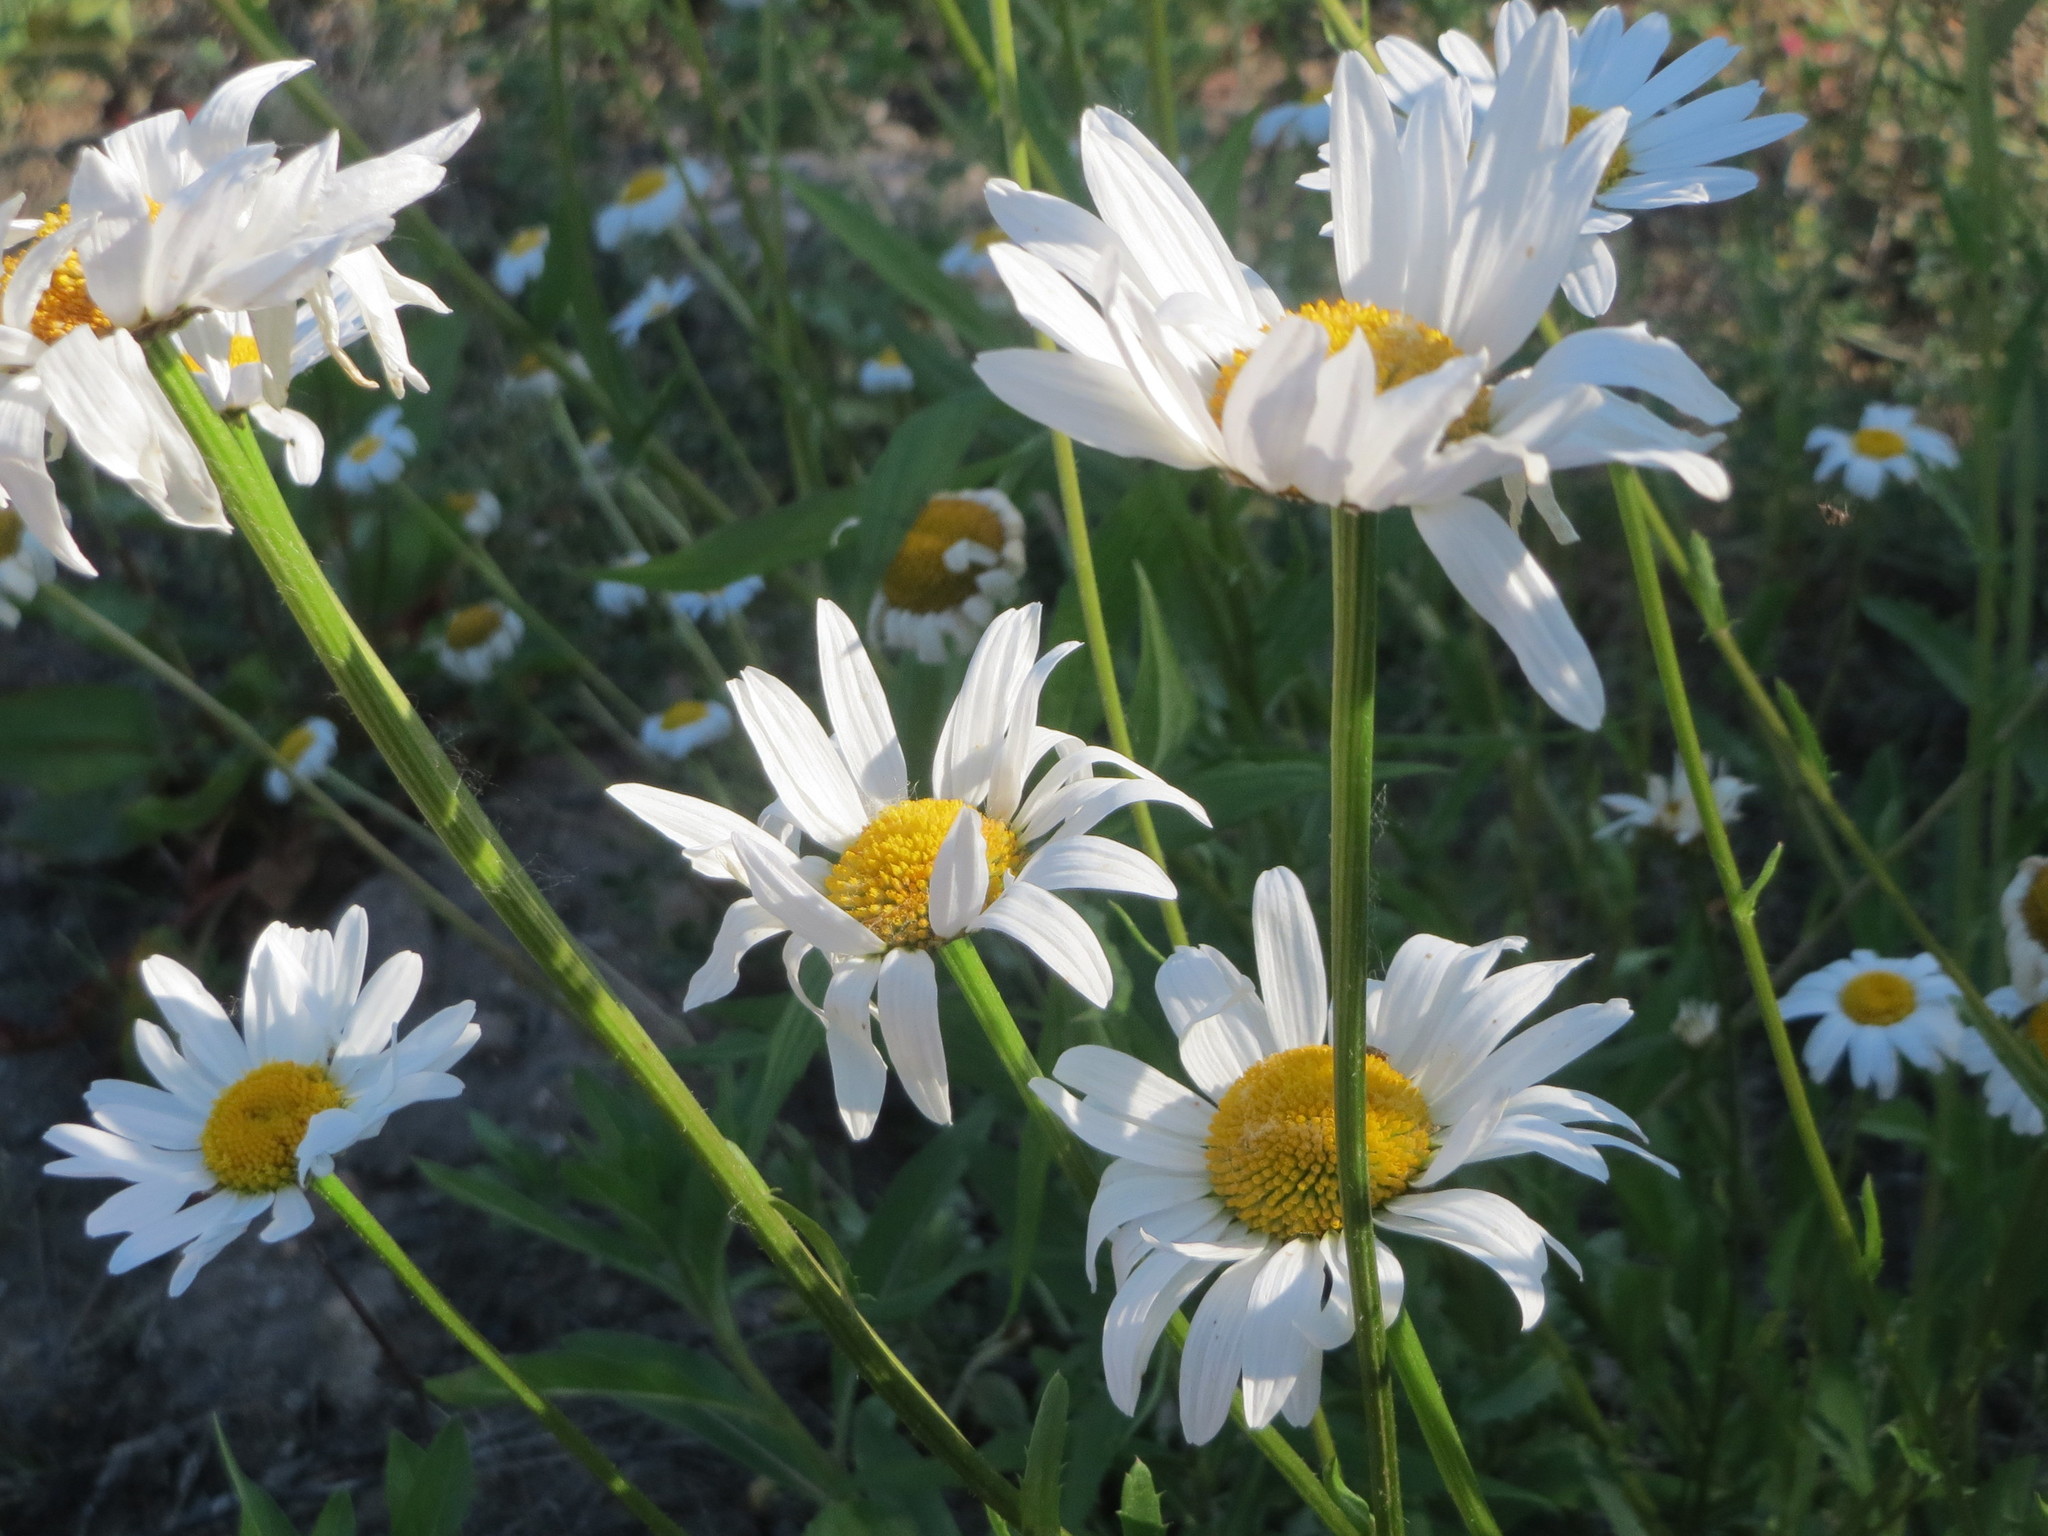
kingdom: Plantae
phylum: Tracheophyta
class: Magnoliopsida
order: Asterales
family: Asteraceae
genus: Leucanthemum
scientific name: Leucanthemum vulgare
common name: Oxeye daisy
